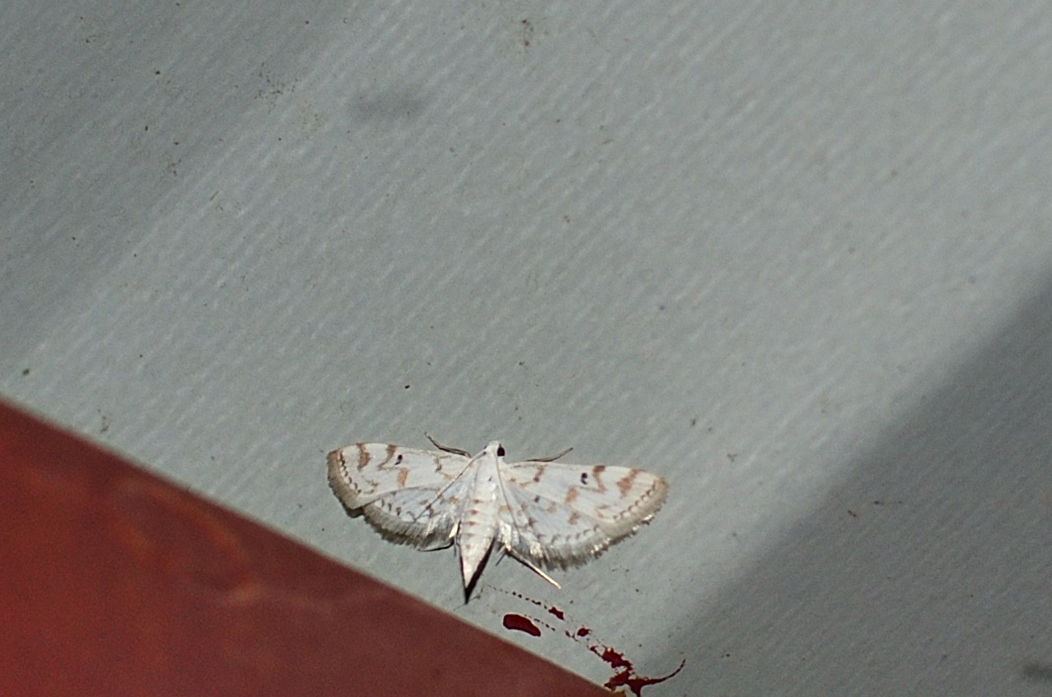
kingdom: Animalia
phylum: Arthropoda
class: Insecta
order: Lepidoptera
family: Crambidae
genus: Parapoynx
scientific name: Parapoynx stagnalis
